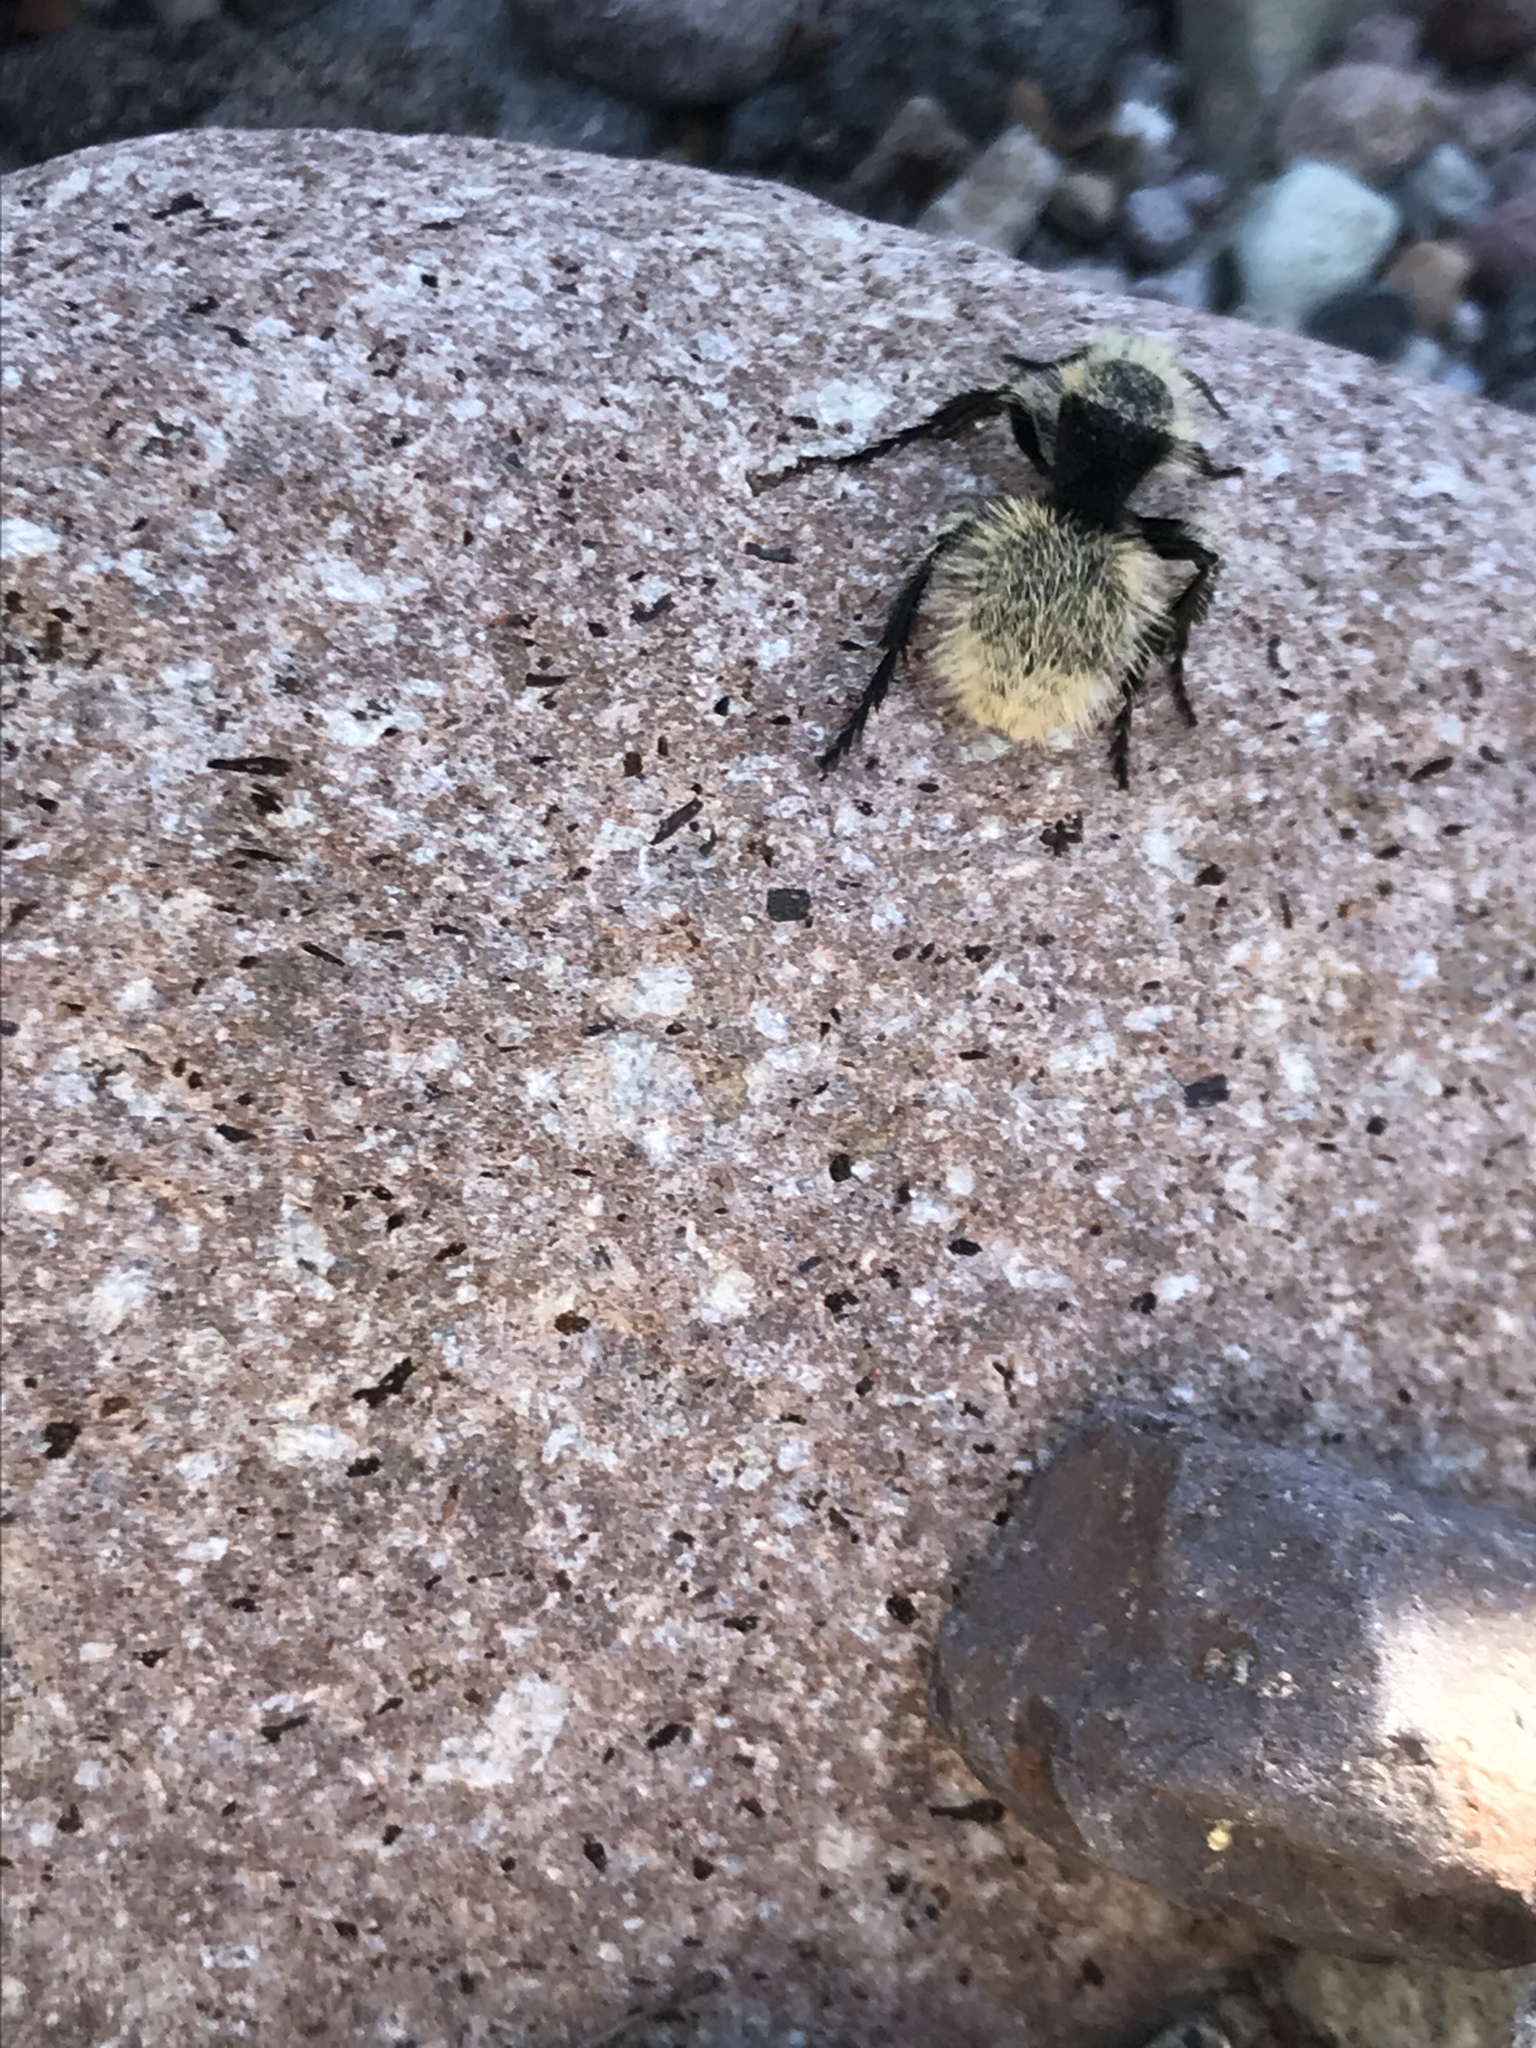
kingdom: Animalia
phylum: Arthropoda
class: Insecta
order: Hymenoptera
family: Mutillidae
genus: Dasymutilla
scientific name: Dasymutilla
